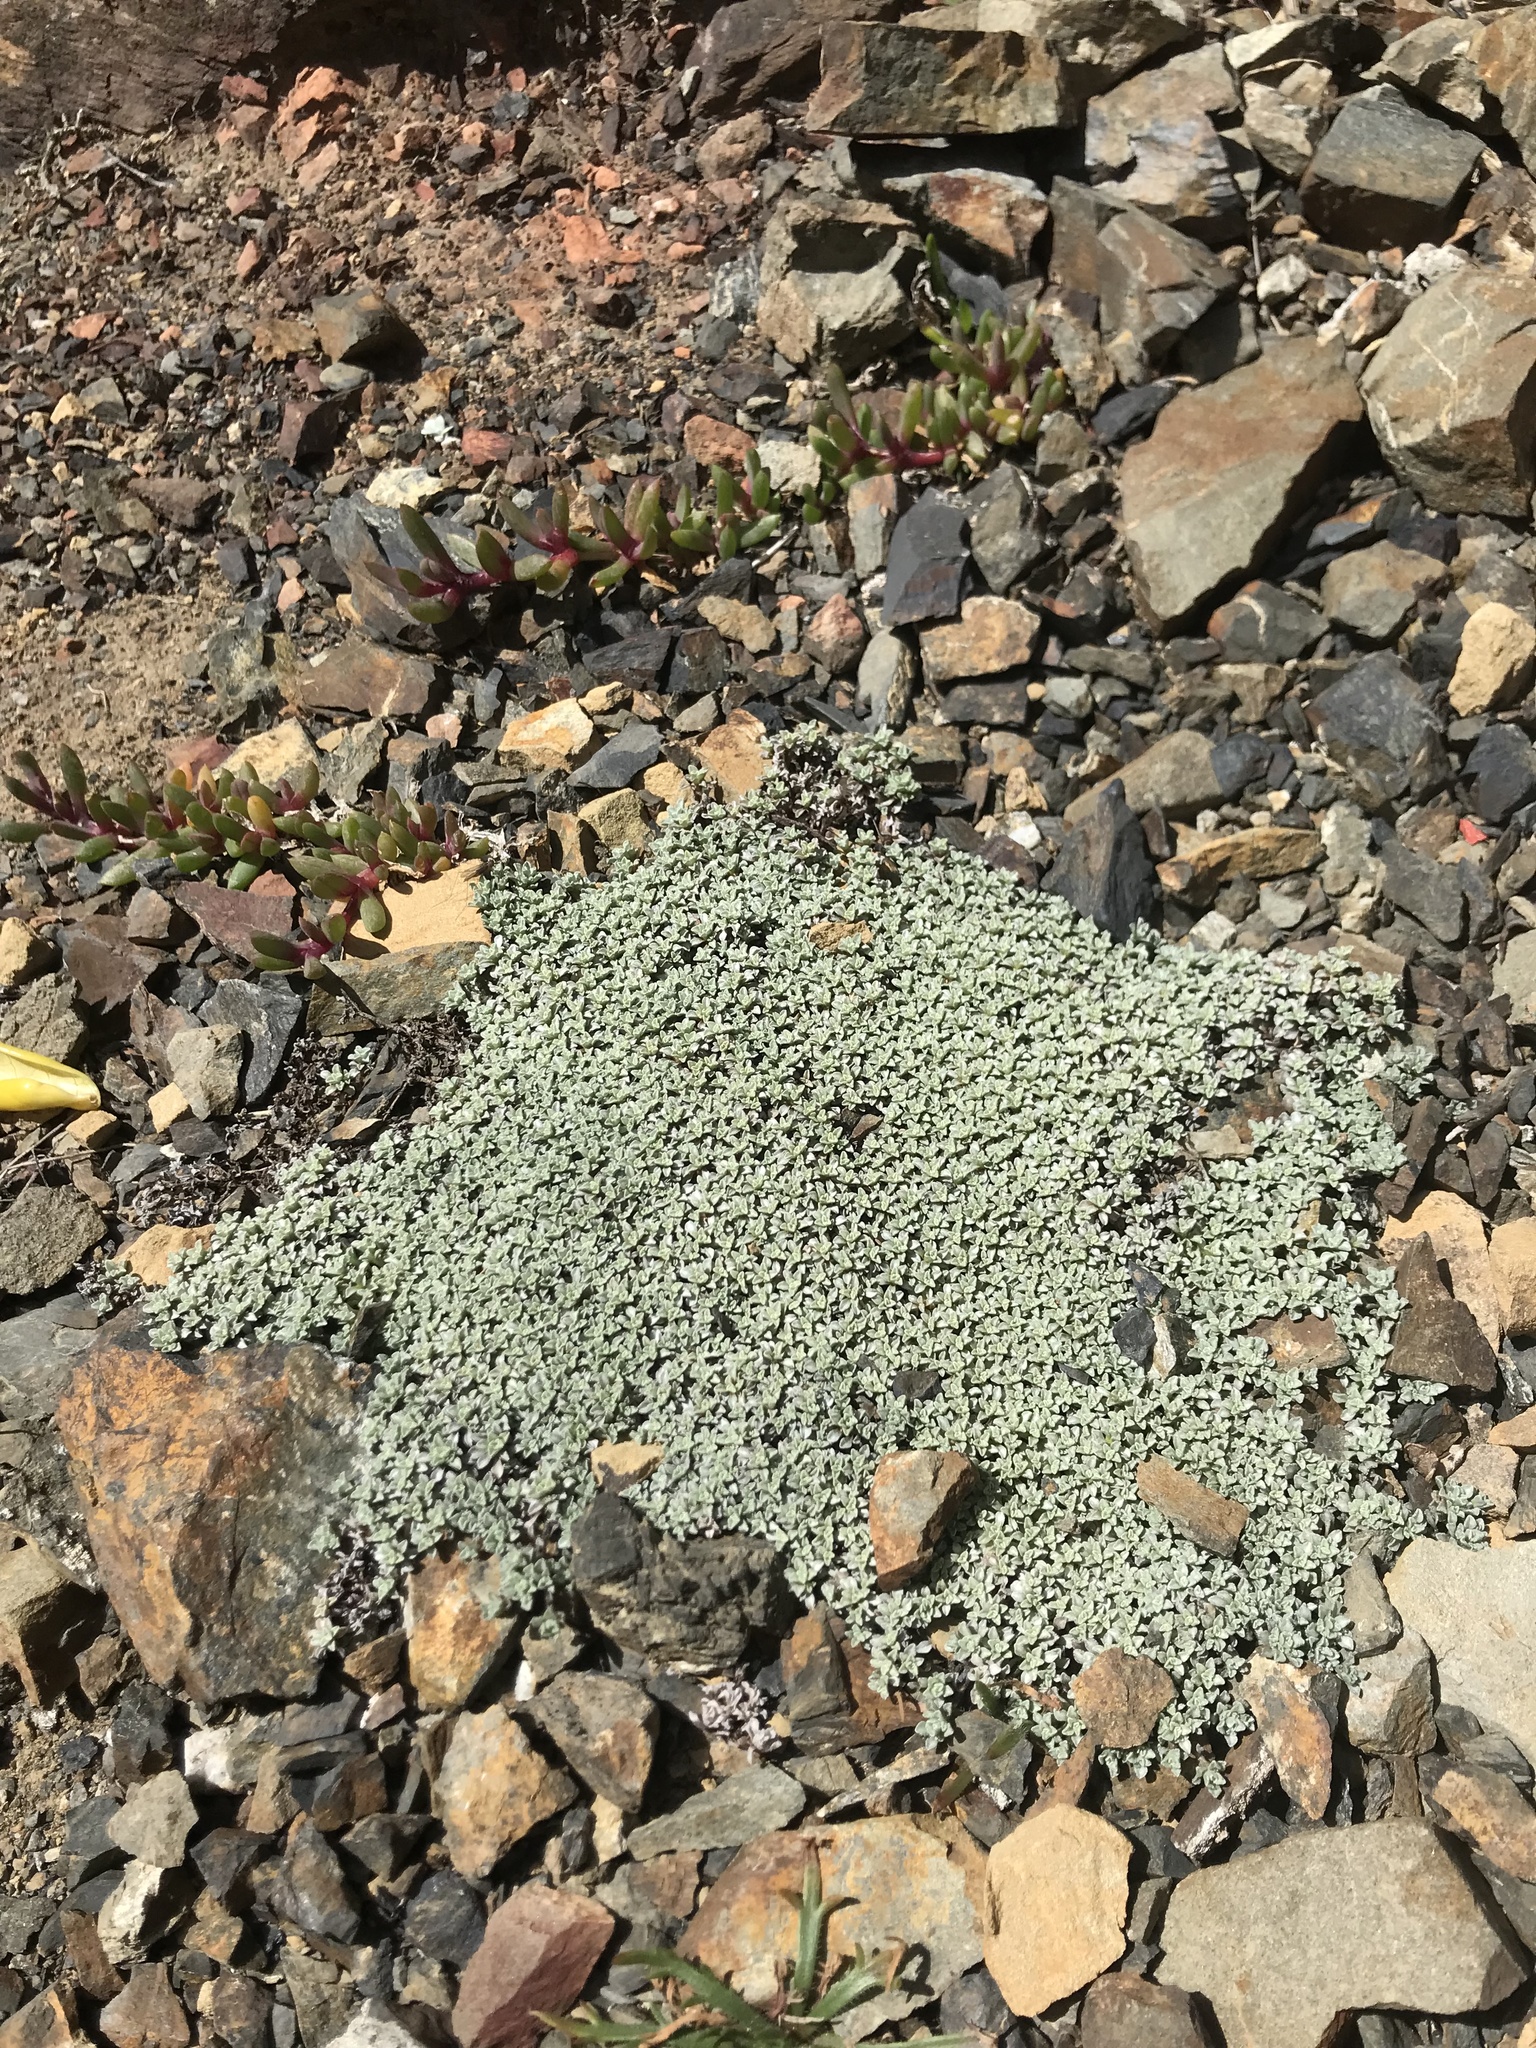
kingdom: Plantae
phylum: Tracheophyta
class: Magnoliopsida
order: Asterales
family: Asteraceae
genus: Raoulia
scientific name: Raoulia hookeri
